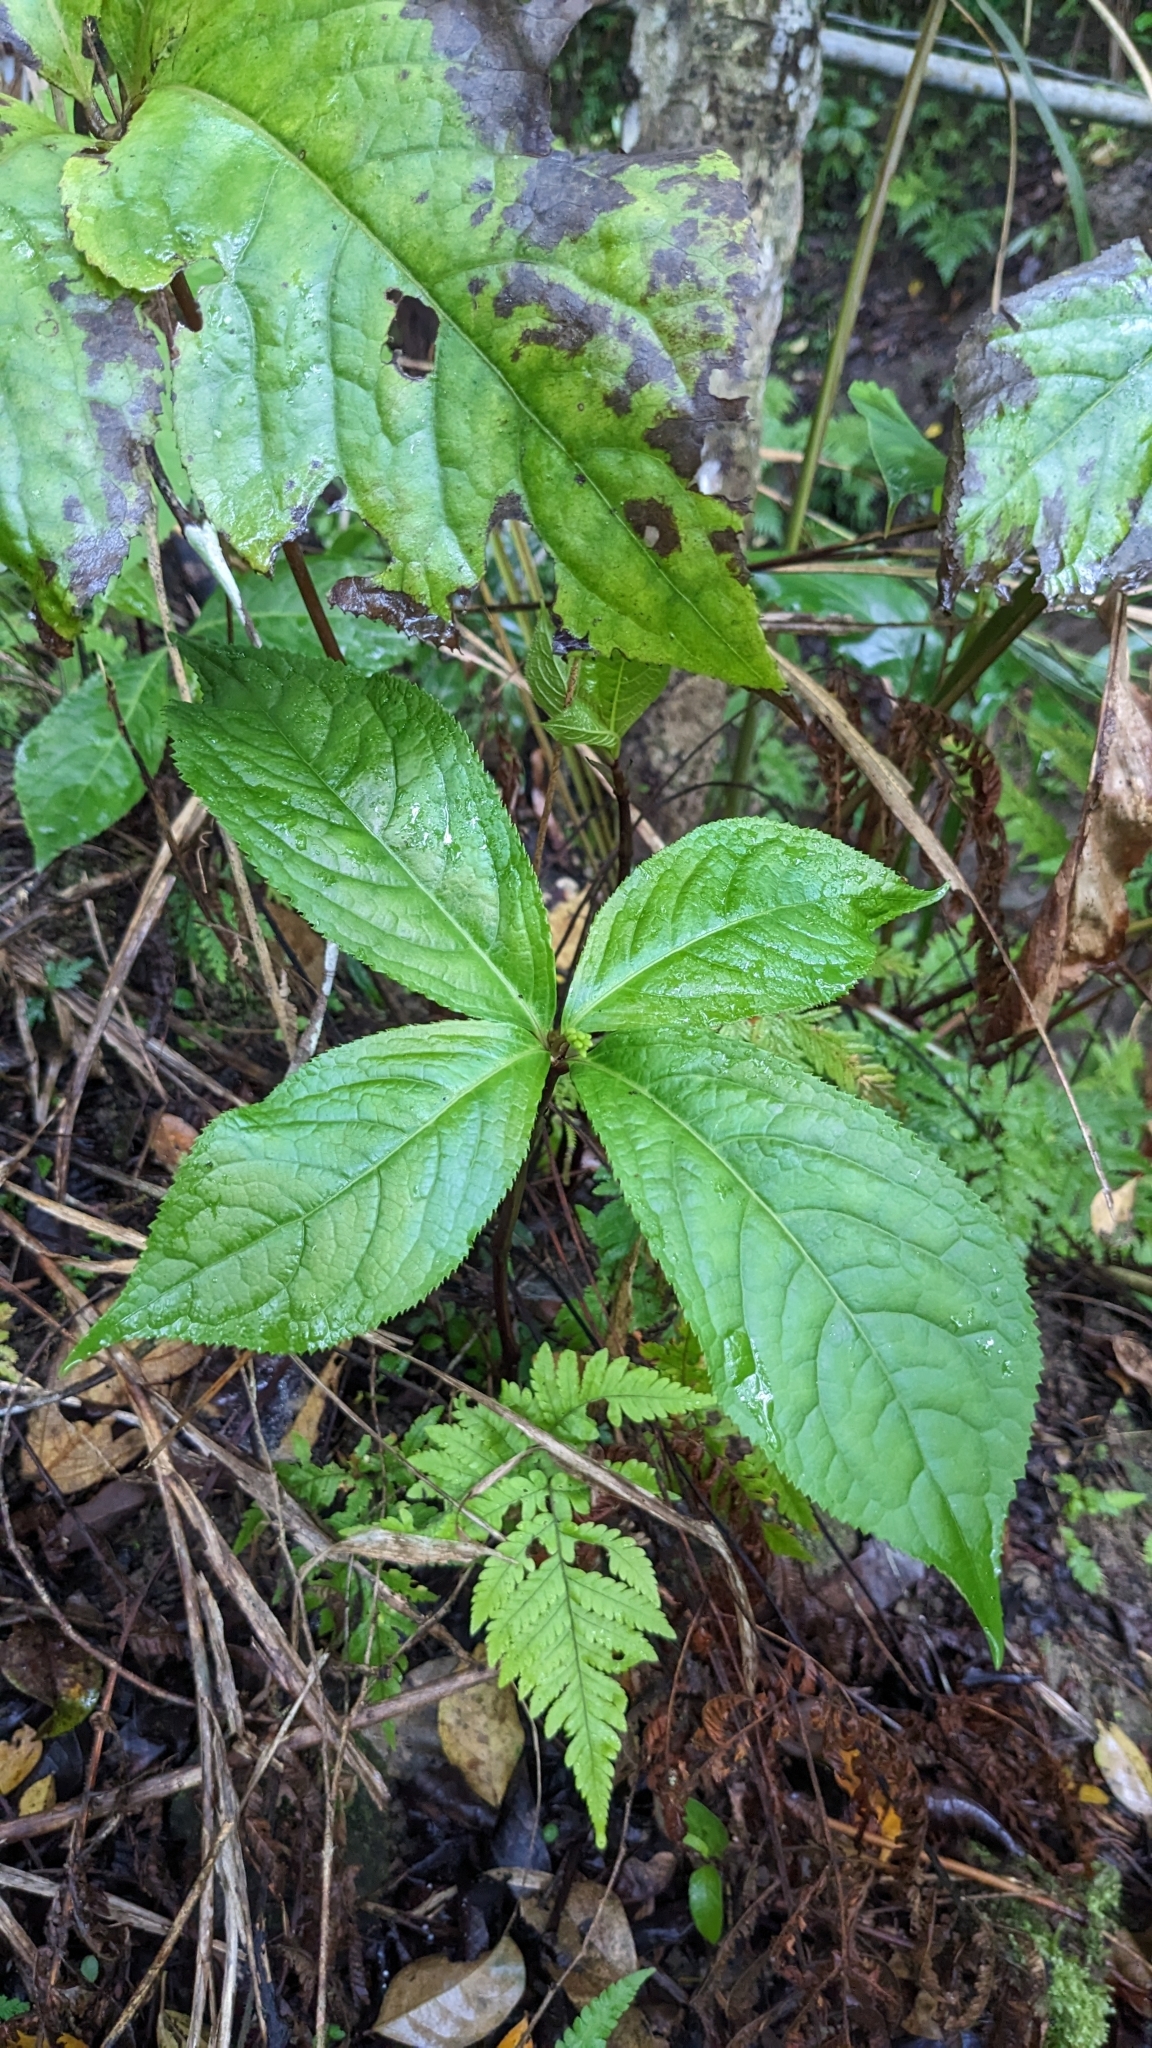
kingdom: Plantae
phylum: Tracheophyta
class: Magnoliopsida
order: Chloranthales
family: Chloranthaceae
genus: Chloranthus
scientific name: Chloranthus oldhamii
